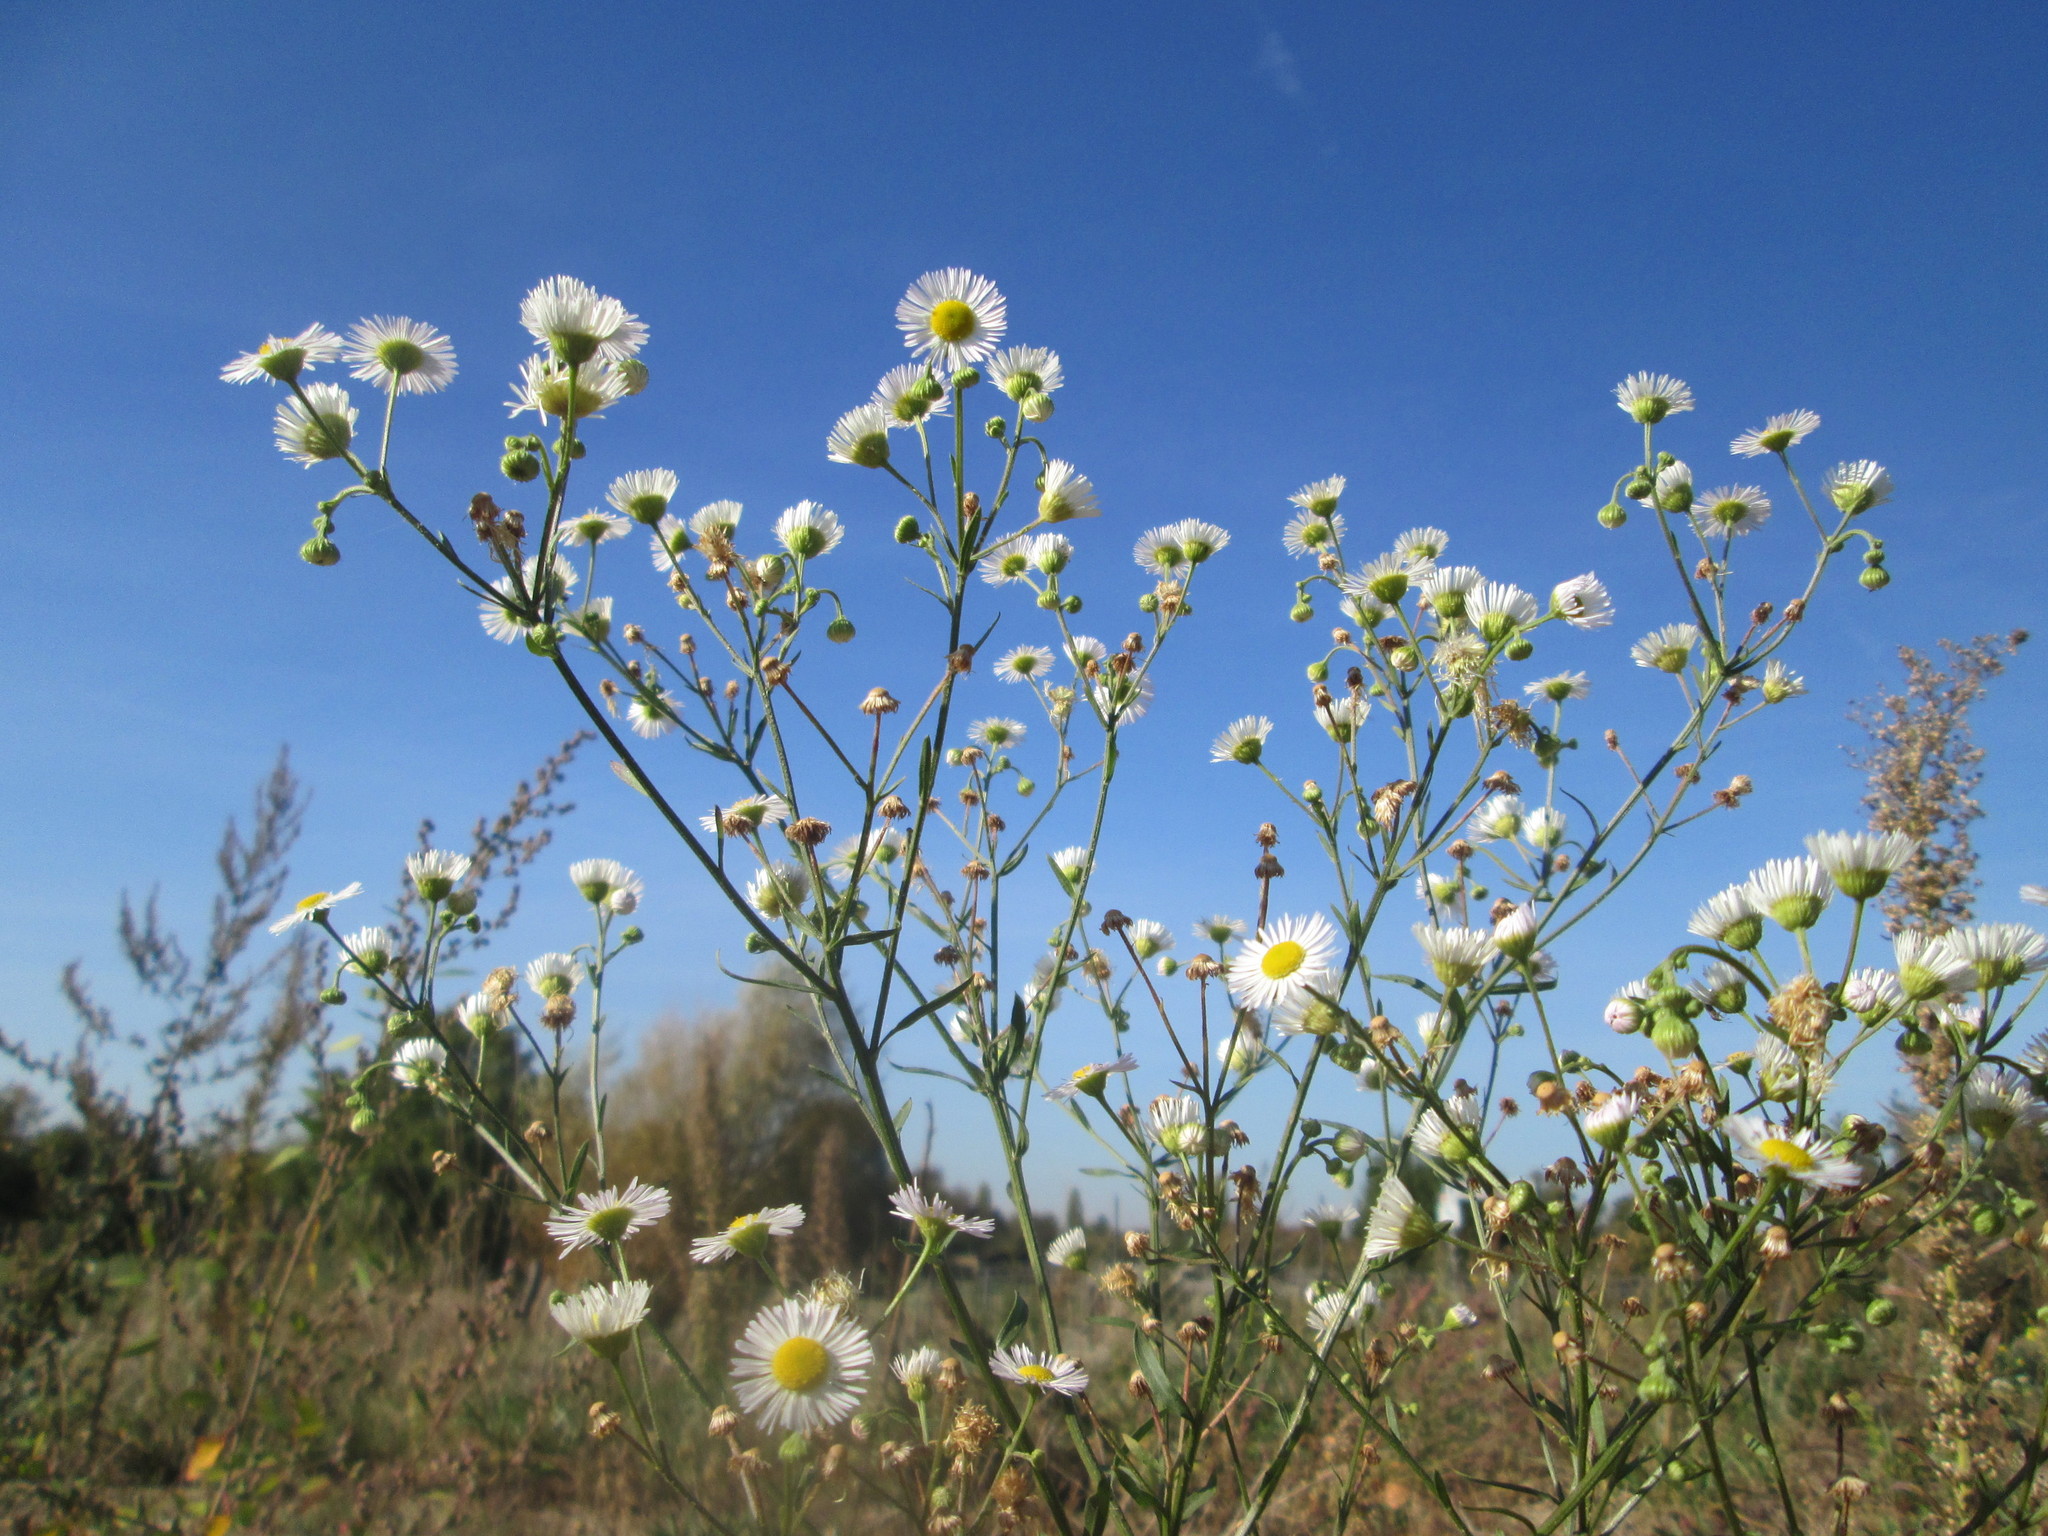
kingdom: Plantae
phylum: Tracheophyta
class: Magnoliopsida
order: Asterales
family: Asteraceae
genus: Erigeron
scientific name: Erigeron annuus
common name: Tall fleabane
